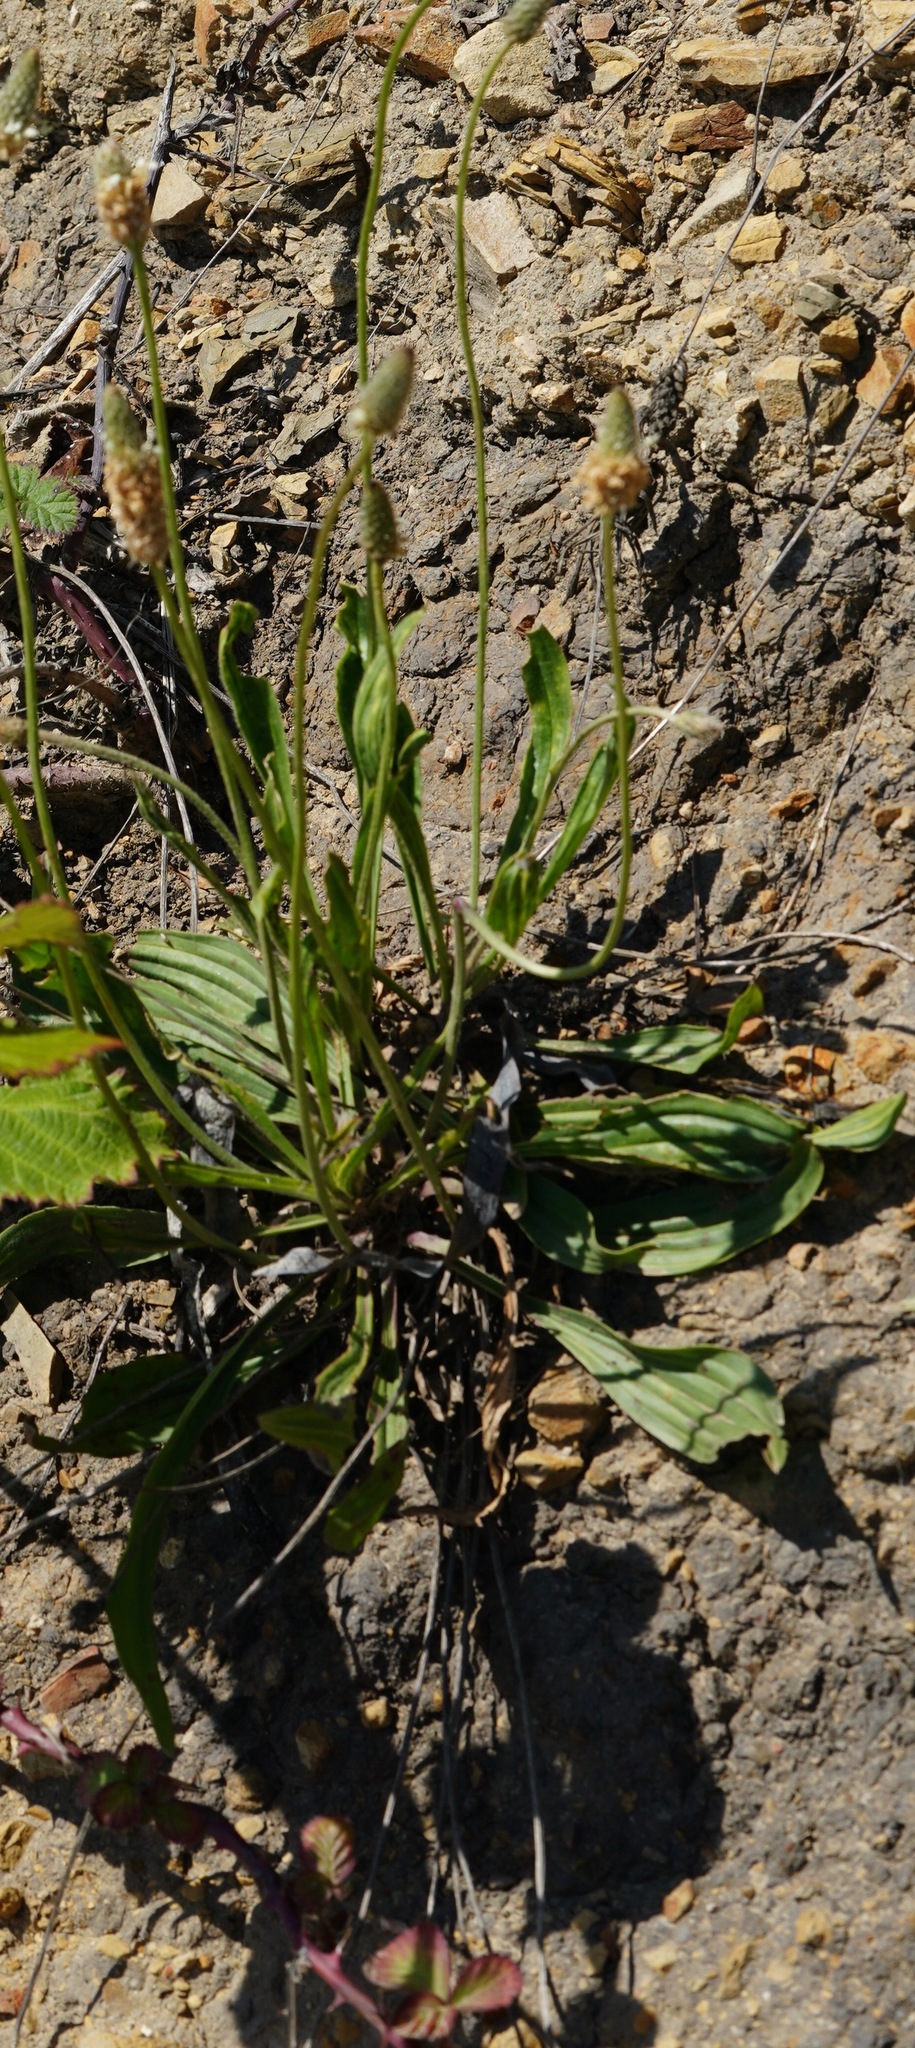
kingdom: Plantae
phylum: Tracheophyta
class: Magnoliopsida
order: Lamiales
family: Plantaginaceae
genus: Plantago
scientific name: Plantago lanceolata
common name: Ribwort plantain
